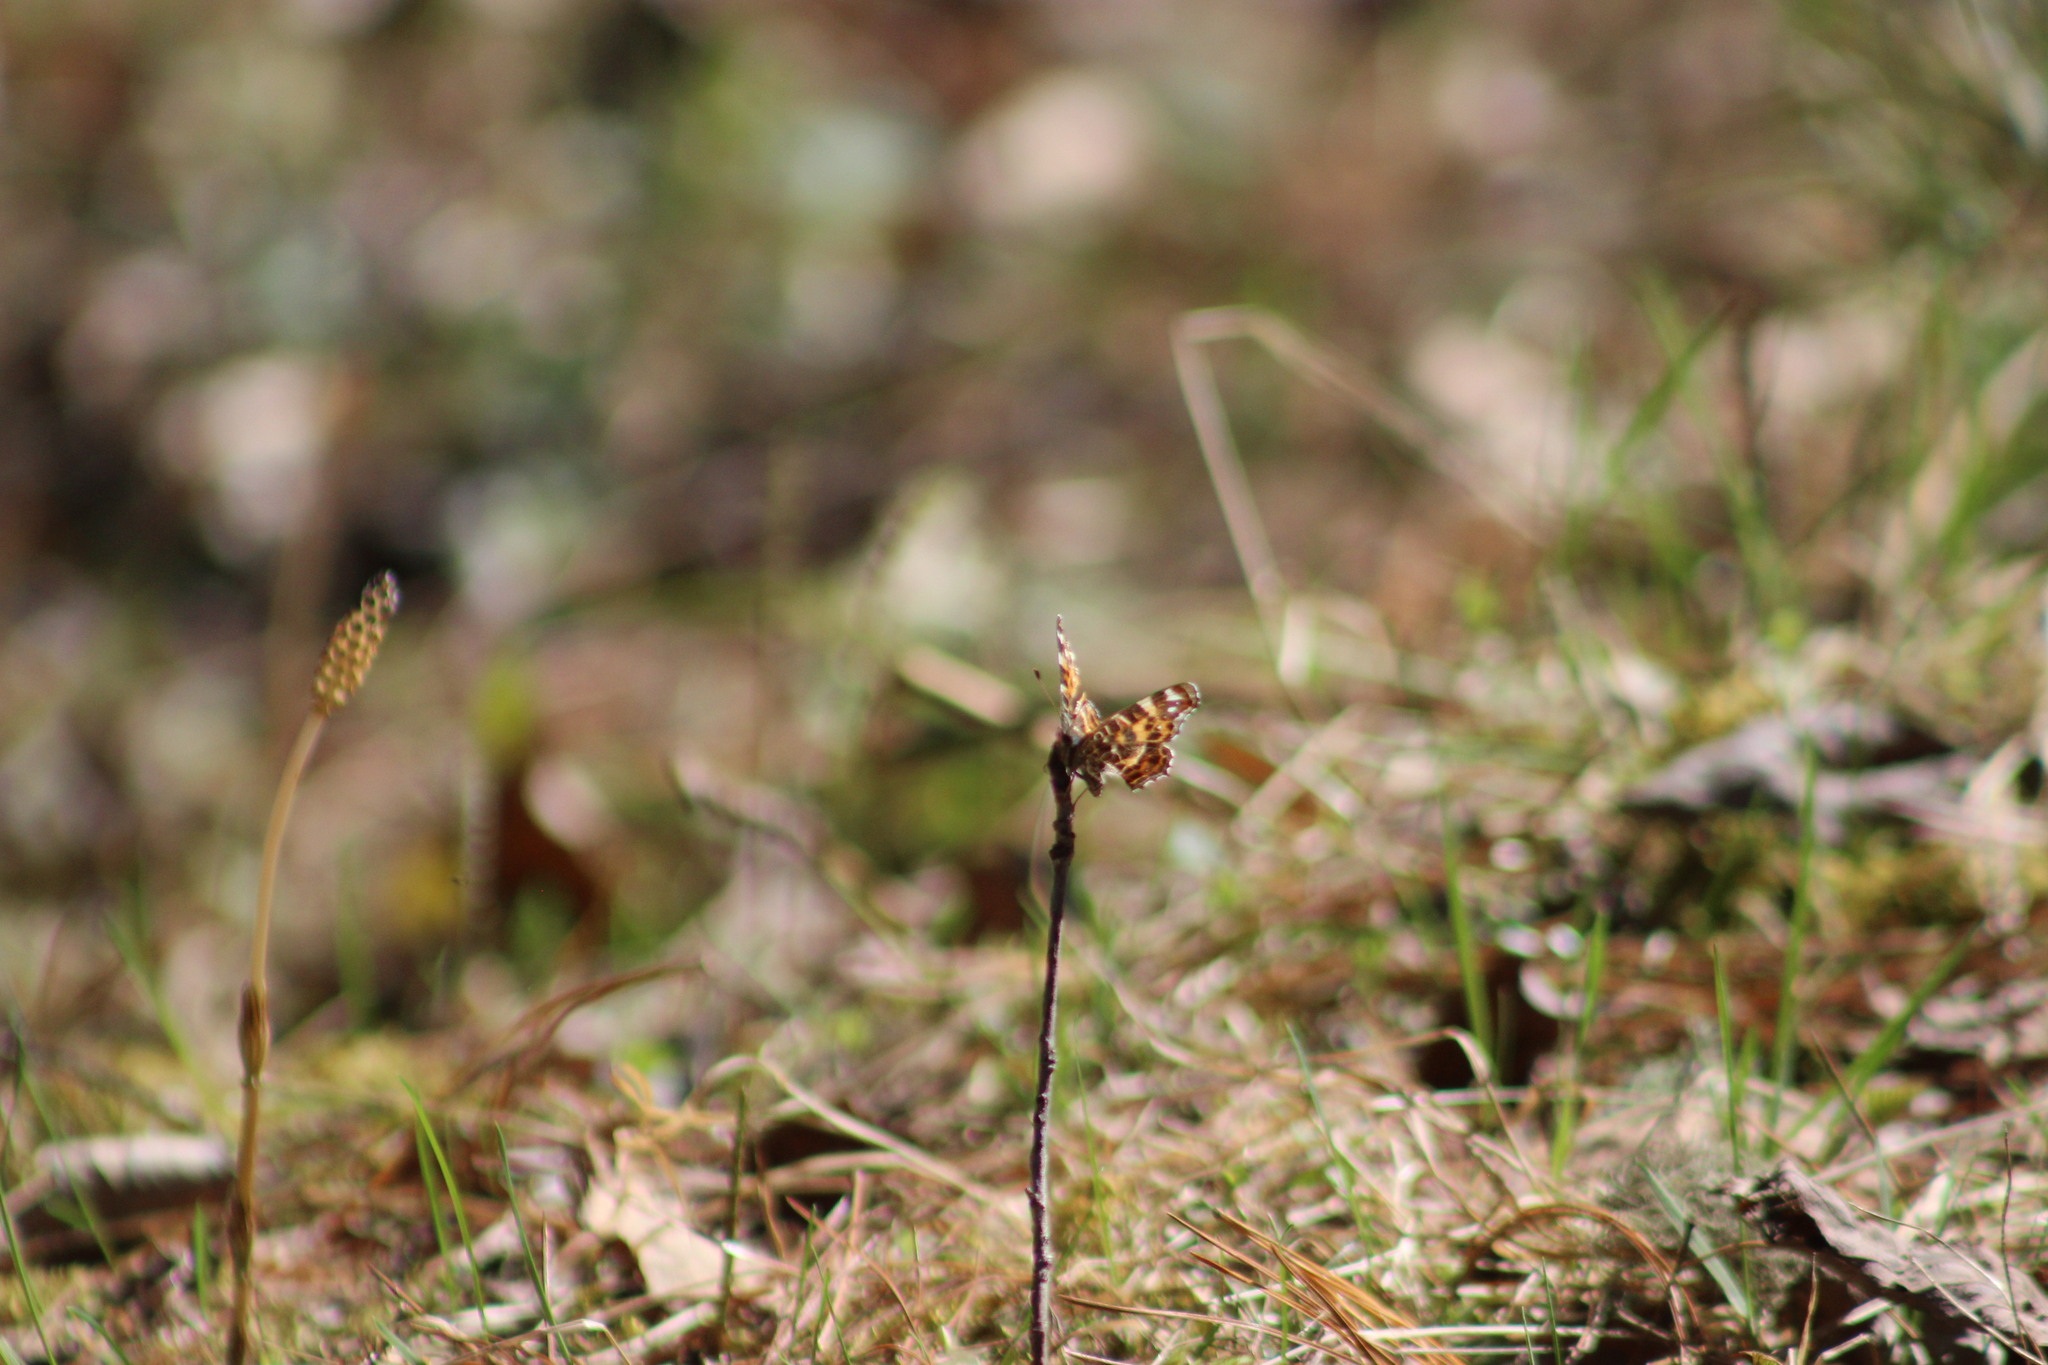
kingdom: Animalia
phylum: Arthropoda
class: Insecta
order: Lepidoptera
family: Nymphalidae
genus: Araschnia
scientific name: Araschnia levana
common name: Map butterfly
